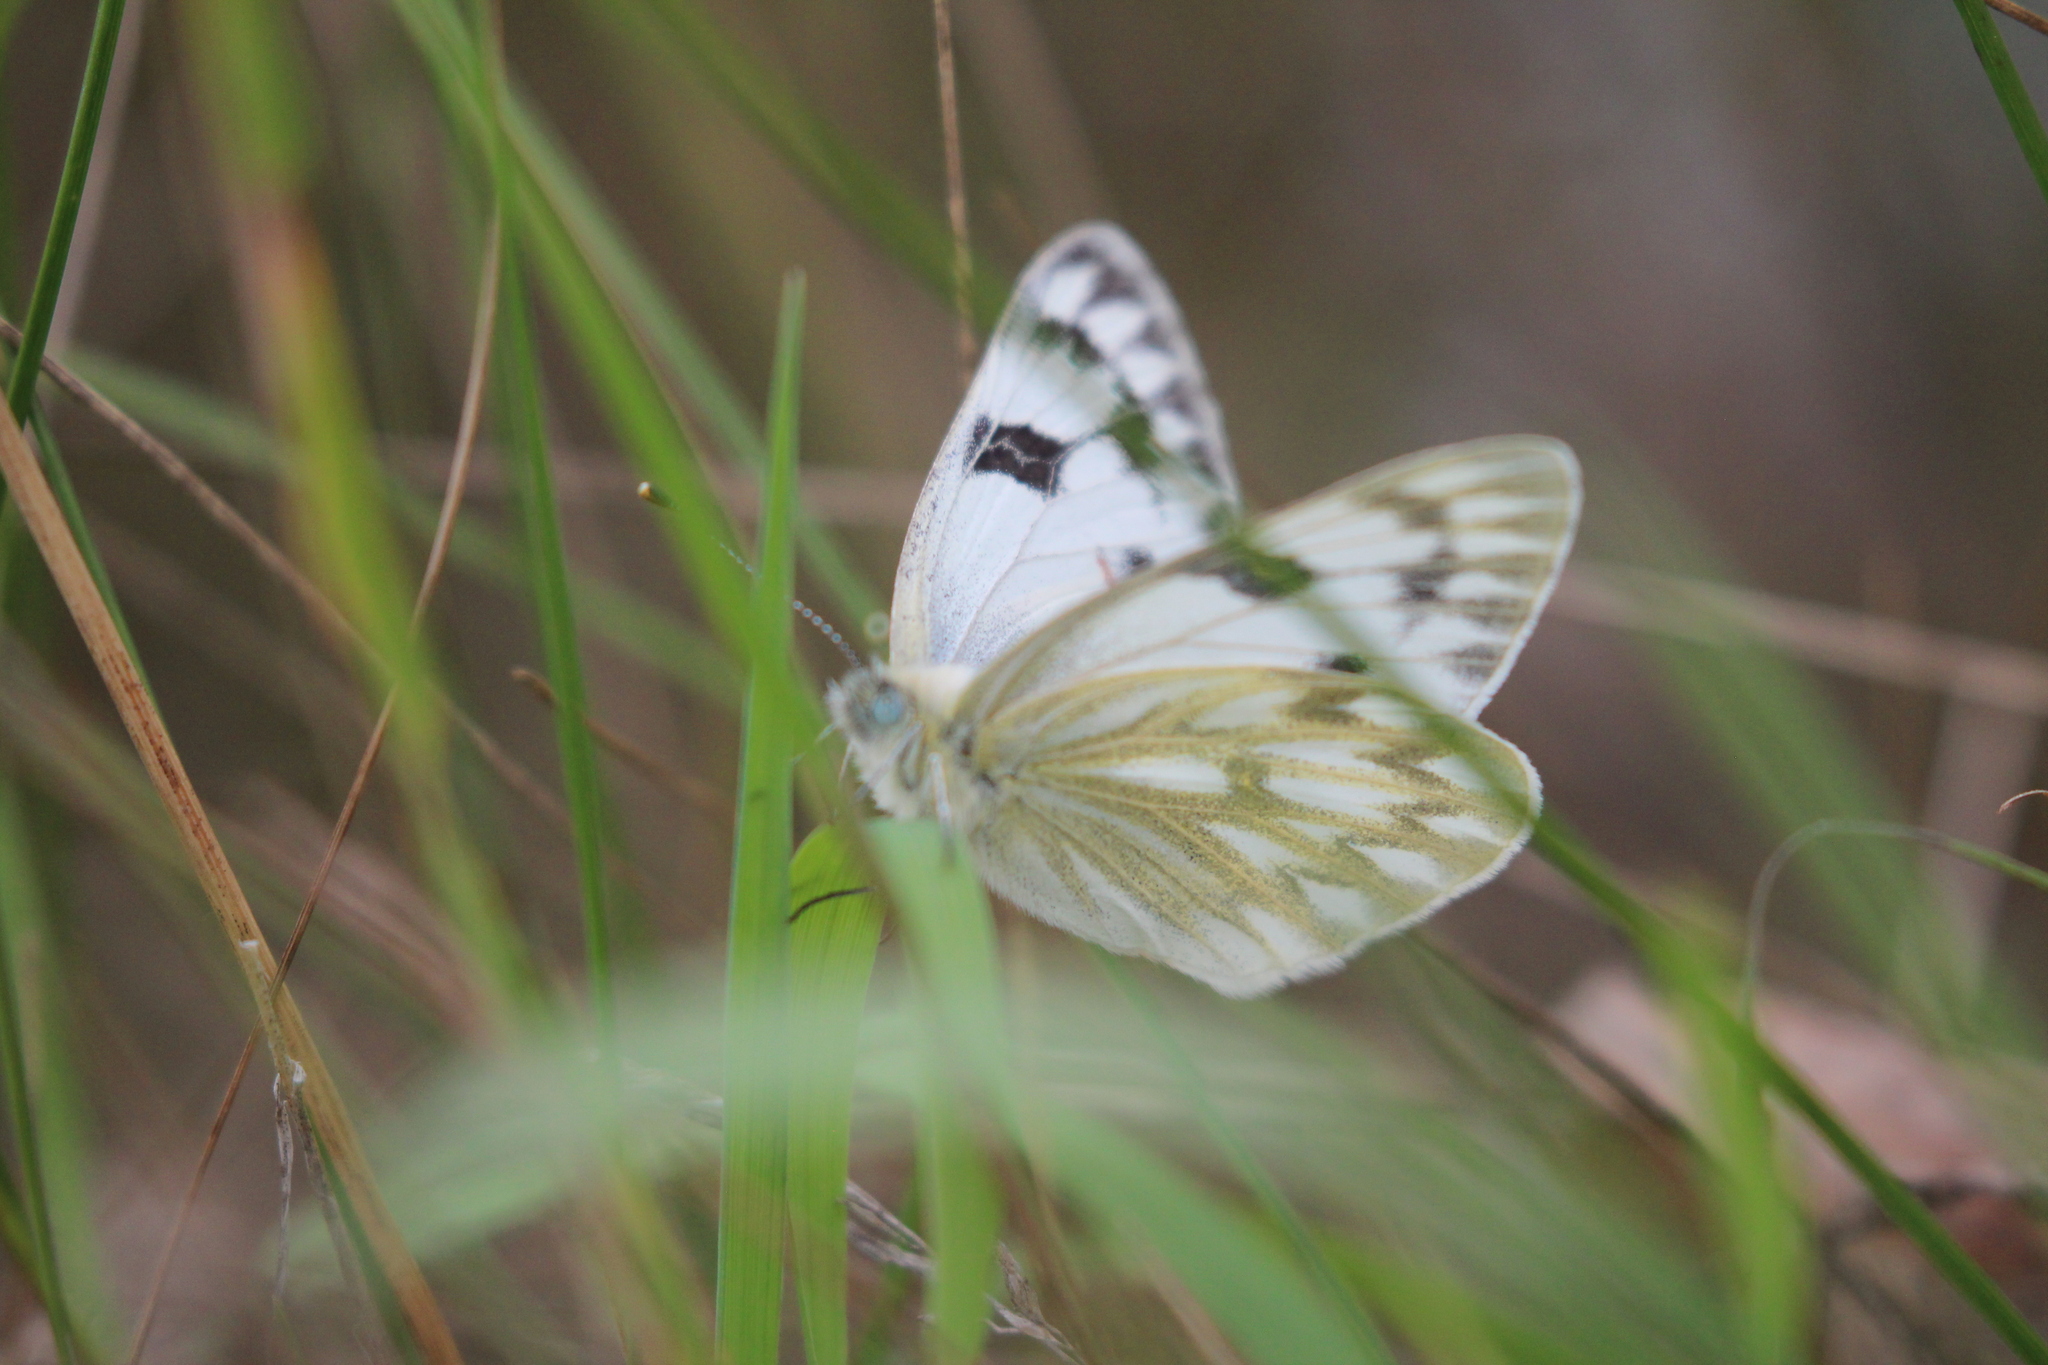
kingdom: Animalia
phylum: Arthropoda
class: Insecta
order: Lepidoptera
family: Pieridae
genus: Pontia
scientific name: Pontia occidentalis
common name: Western white
